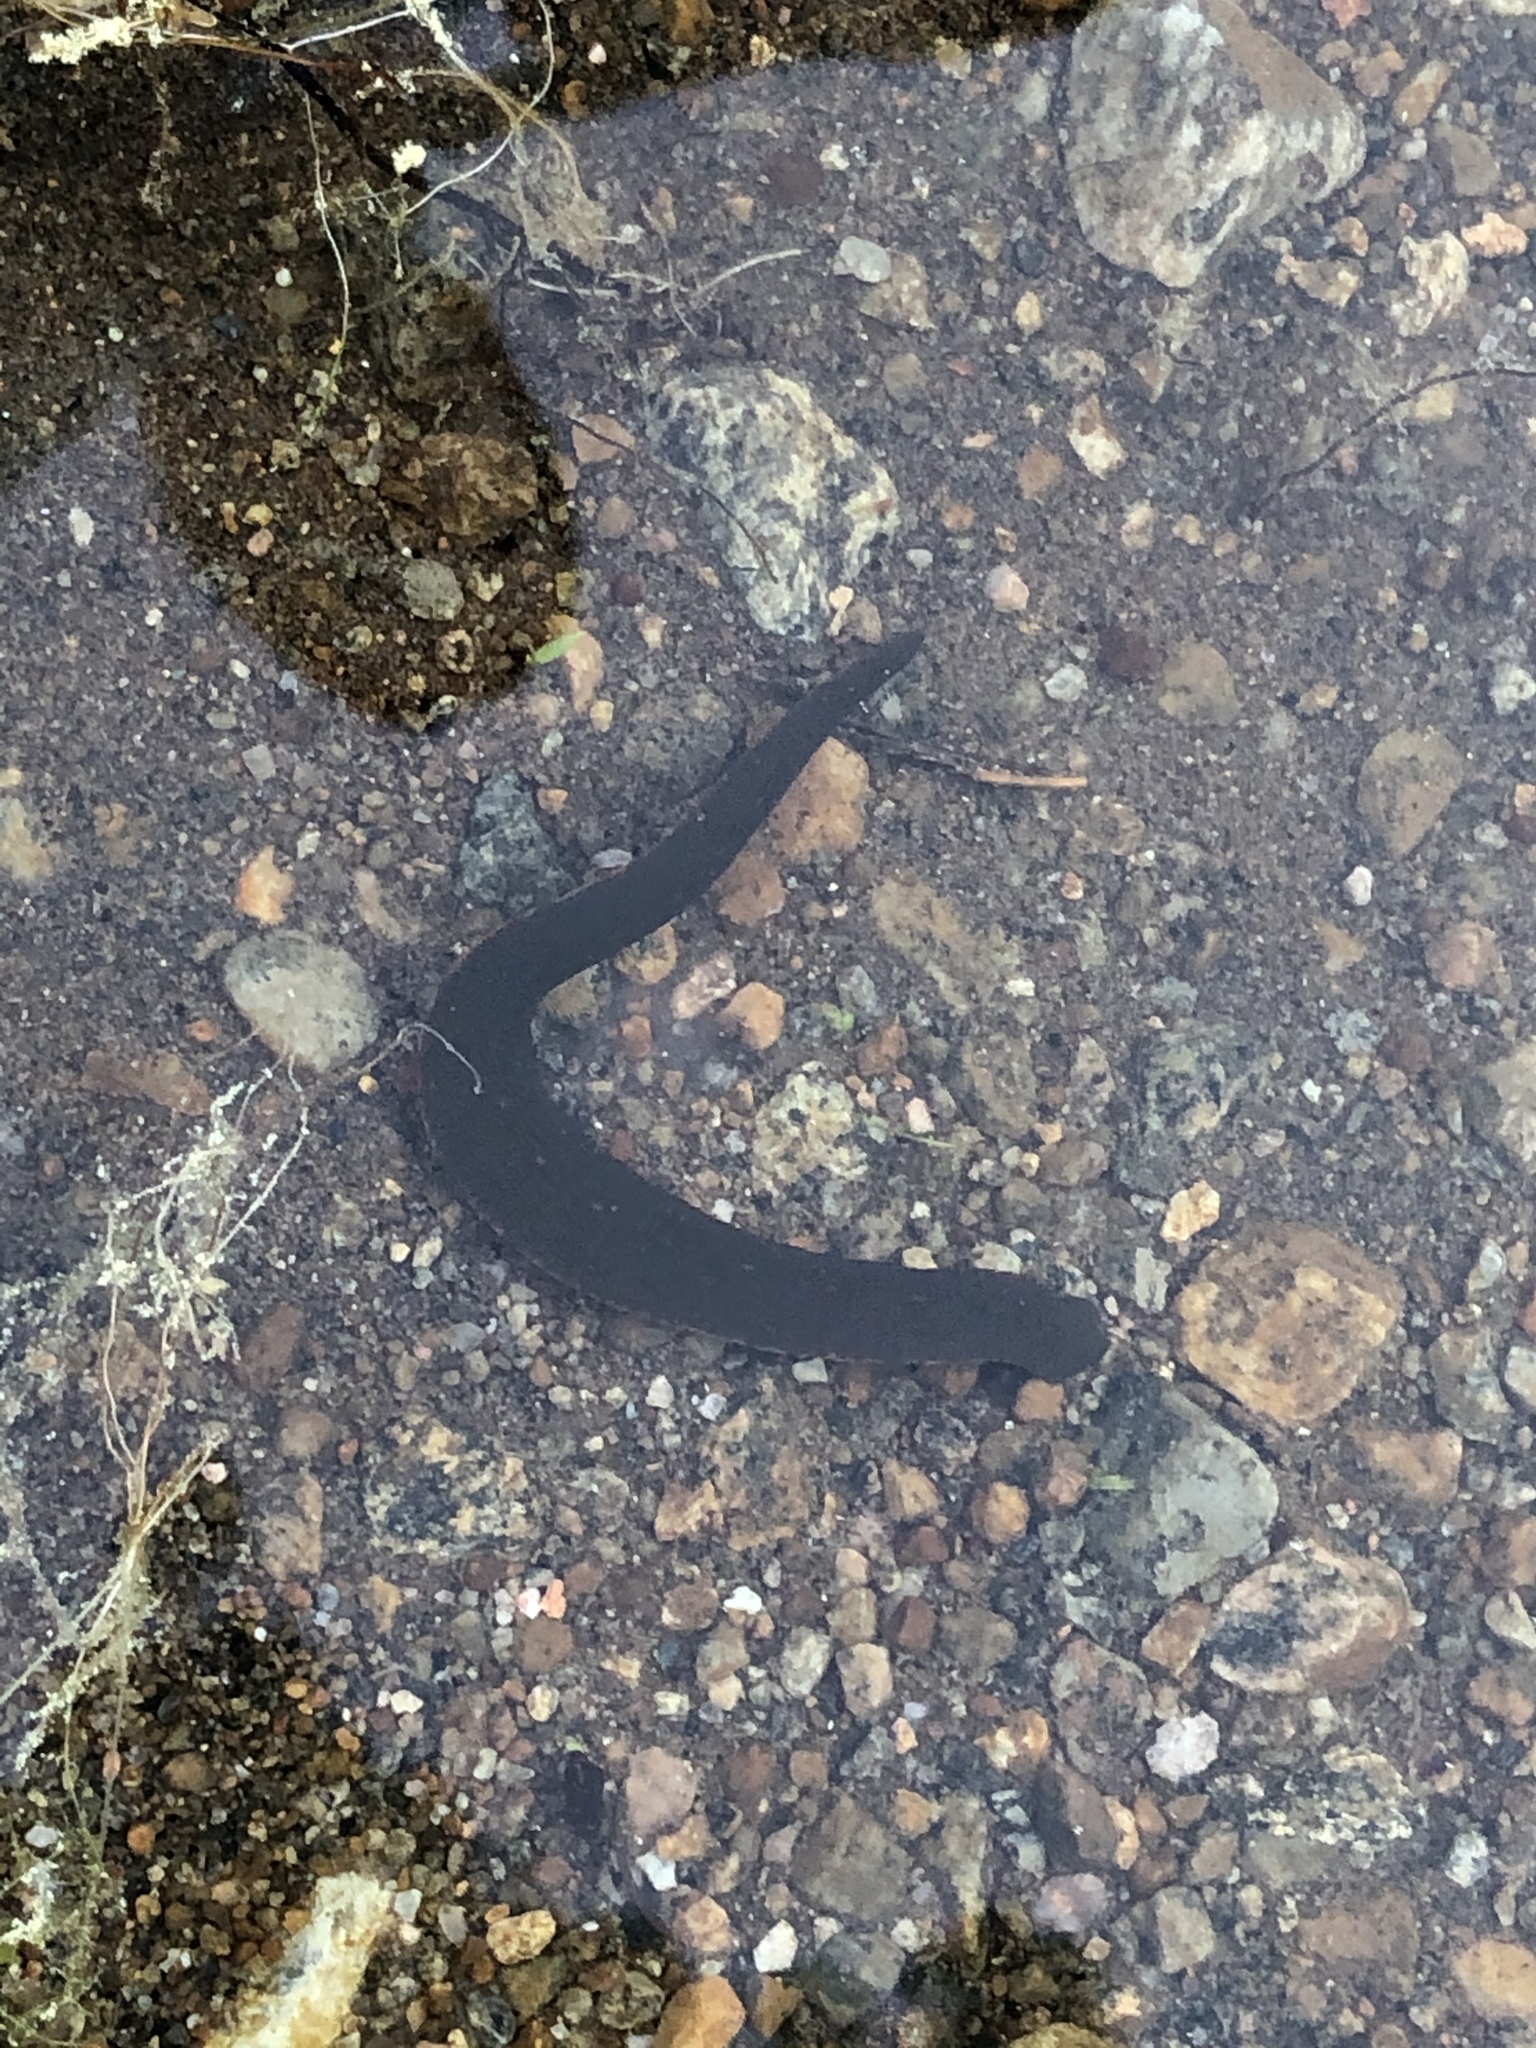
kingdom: Animalia
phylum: Annelida
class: Clitellata
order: Arhynchobdellida
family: Hirudinidae
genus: Macrobdella
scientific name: Macrobdella decora
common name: North american leech
